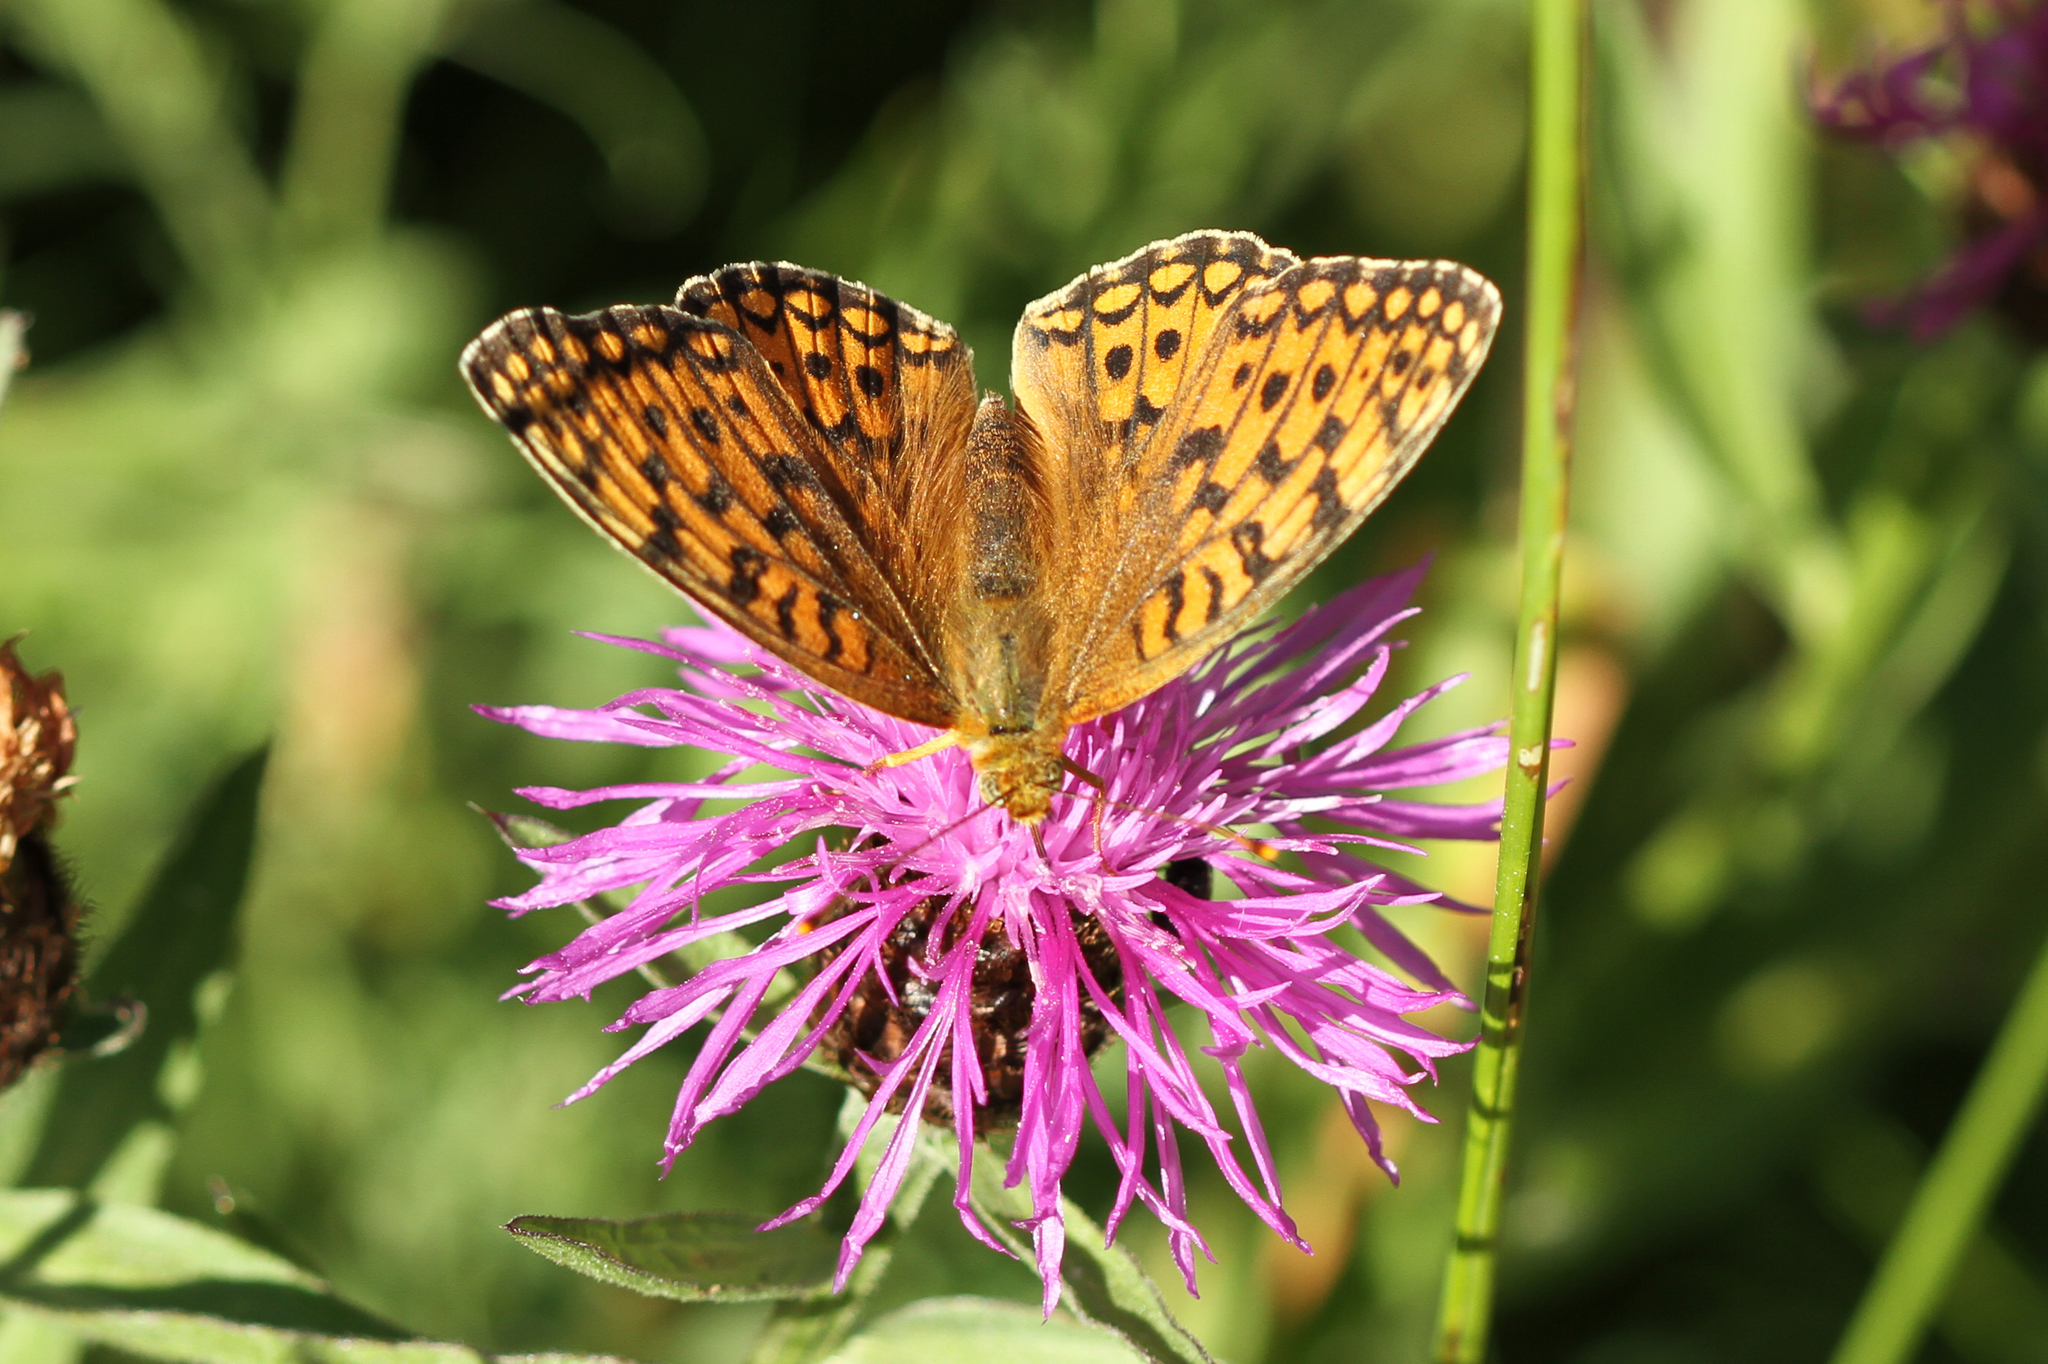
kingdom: Animalia
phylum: Arthropoda
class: Insecta
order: Lepidoptera
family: Nymphalidae
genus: Fabriciana
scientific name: Fabriciana niobe
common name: Niobe fritillary
